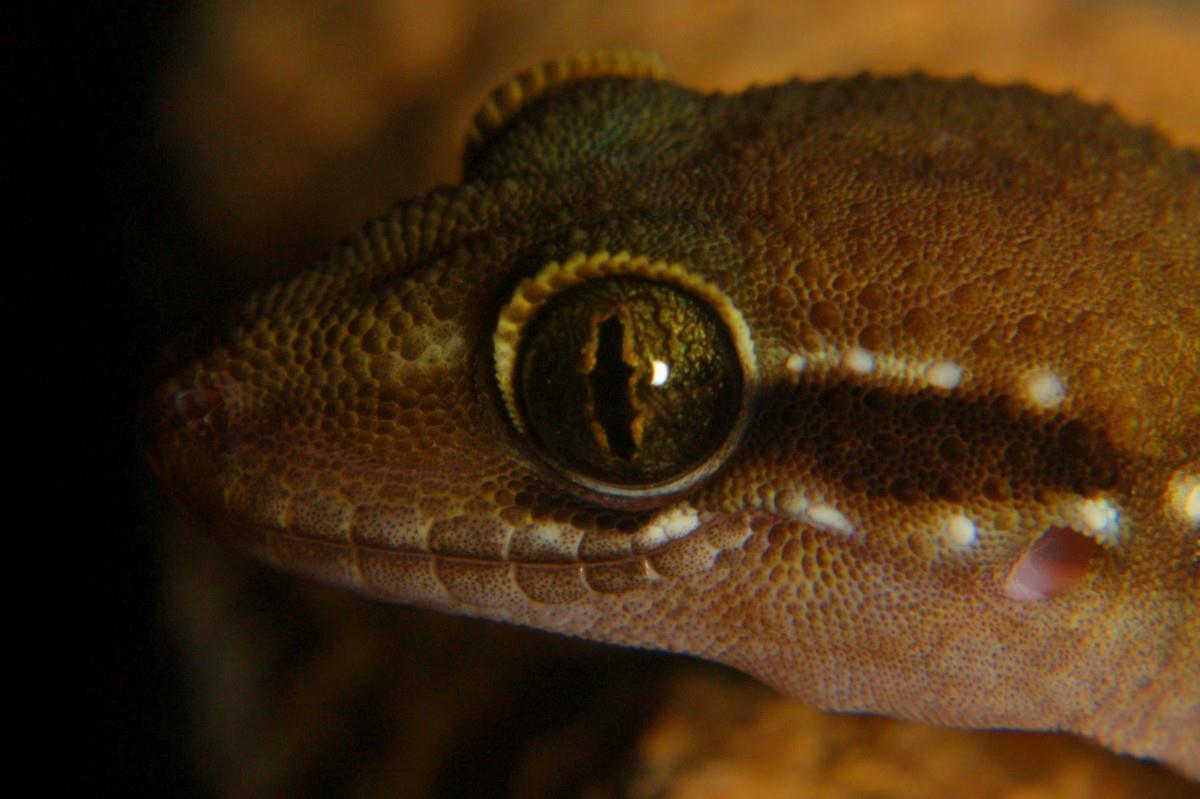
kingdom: Animalia
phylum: Chordata
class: Squamata
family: Gekkonidae
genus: Hemidactylus
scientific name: Hemidactylus triedrus
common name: Blotched house gecko
